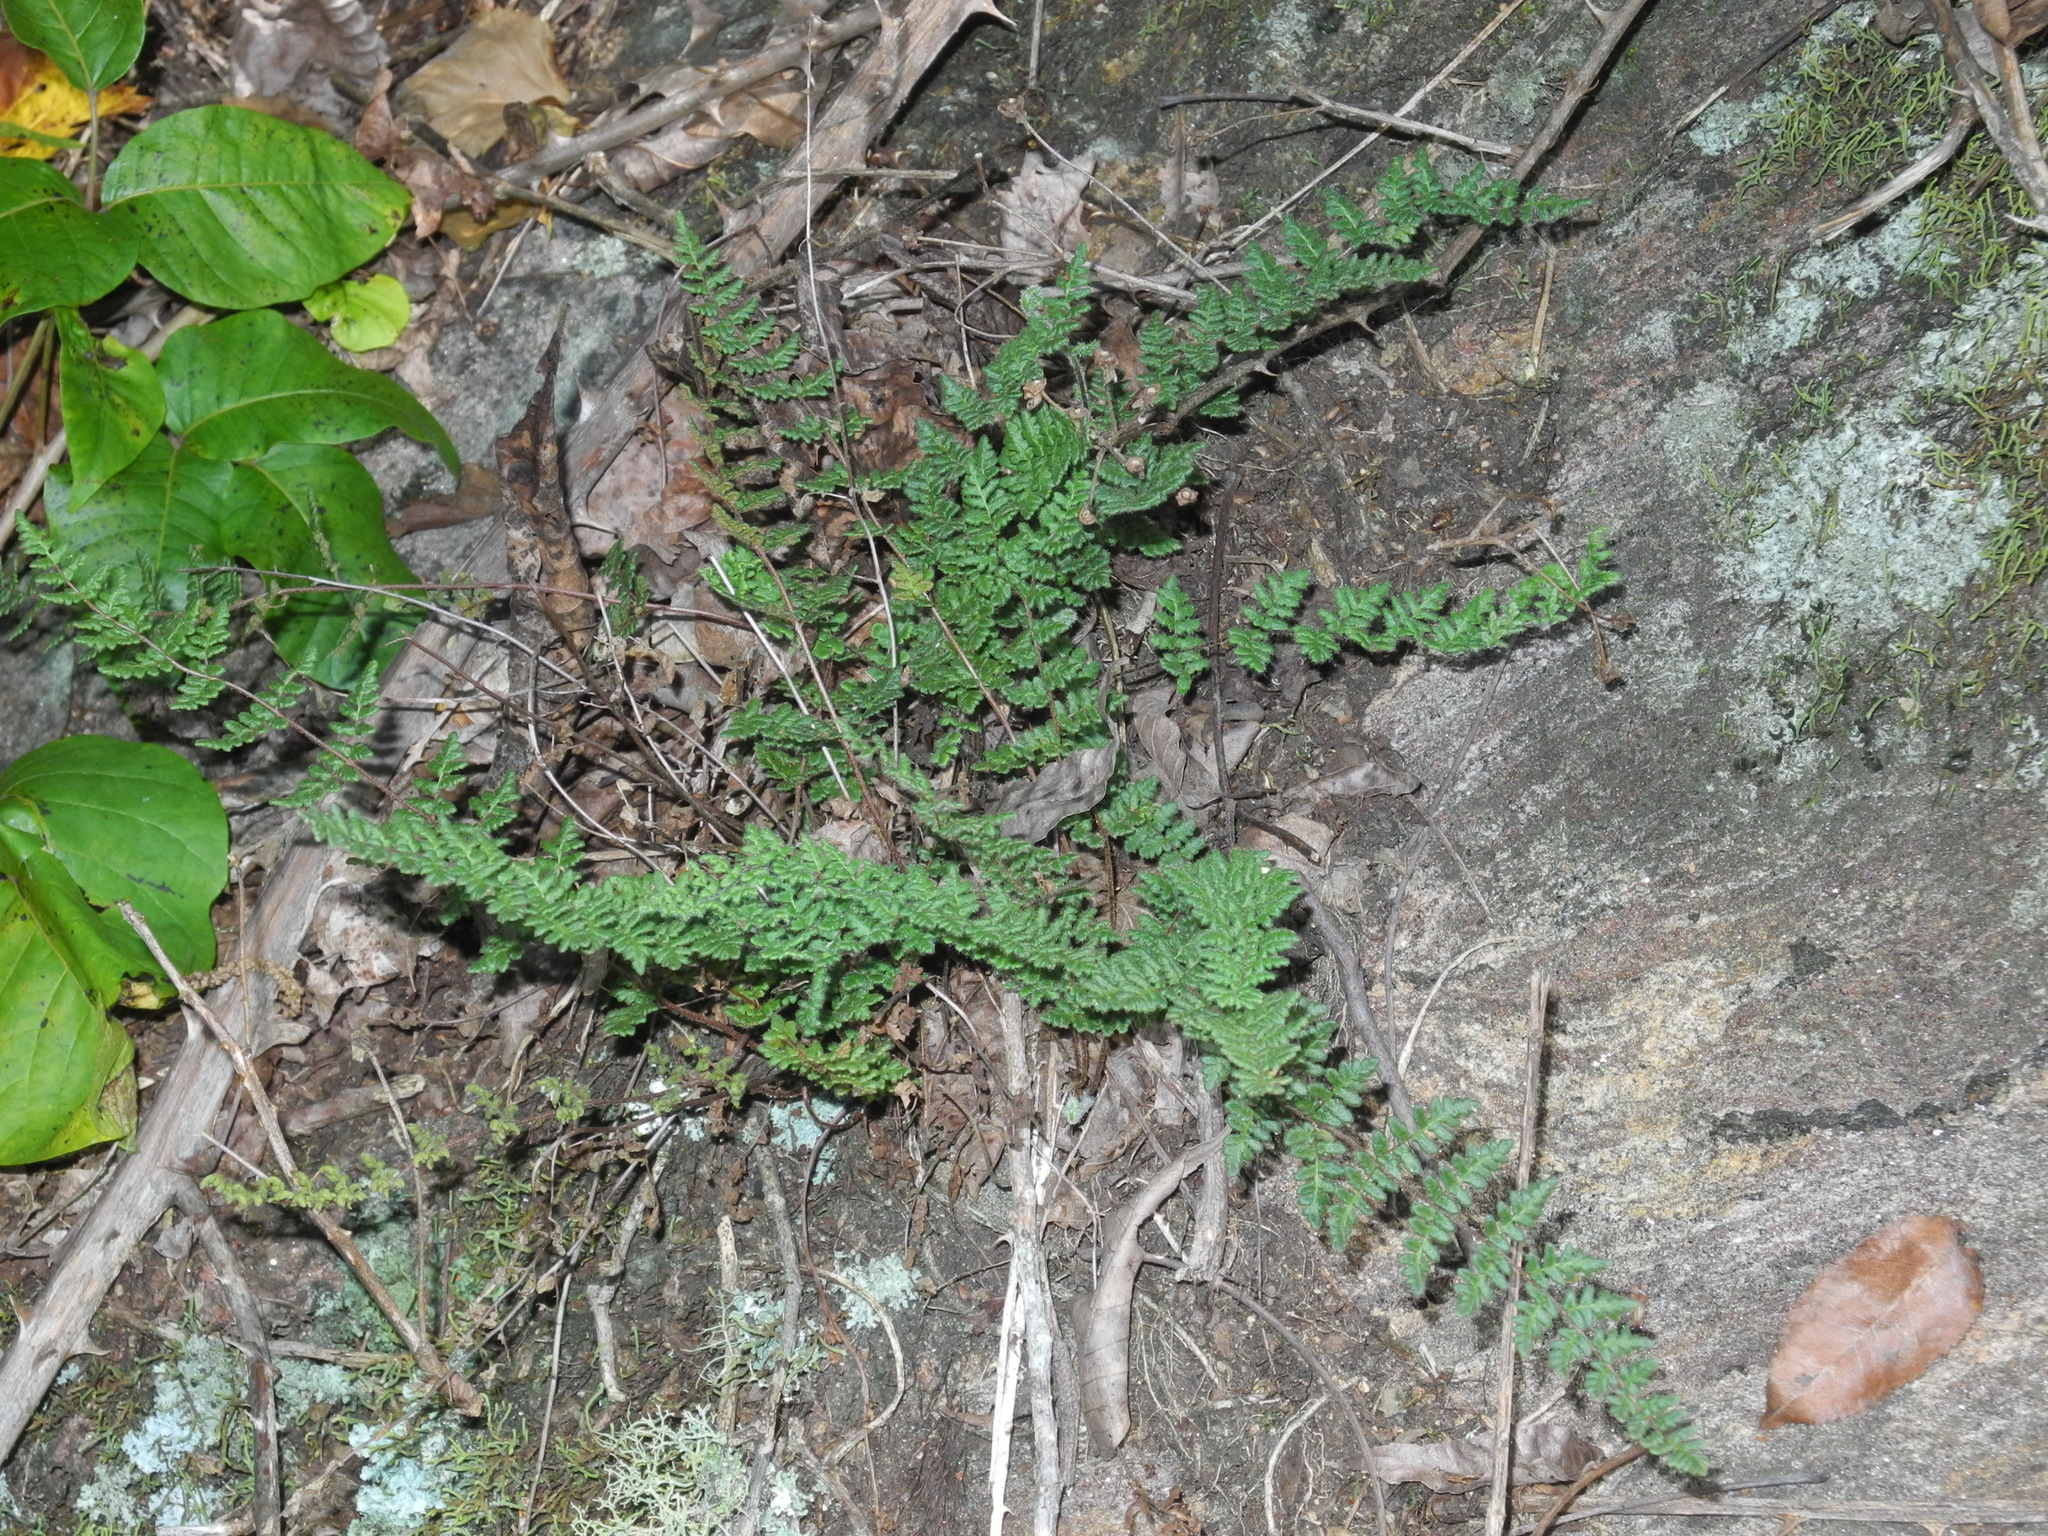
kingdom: Plantae
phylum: Tracheophyta
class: Polypodiopsida
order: Polypodiales
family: Pteridaceae
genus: Myriopteris
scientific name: Myriopteris lanosa
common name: Hairy lip fern
